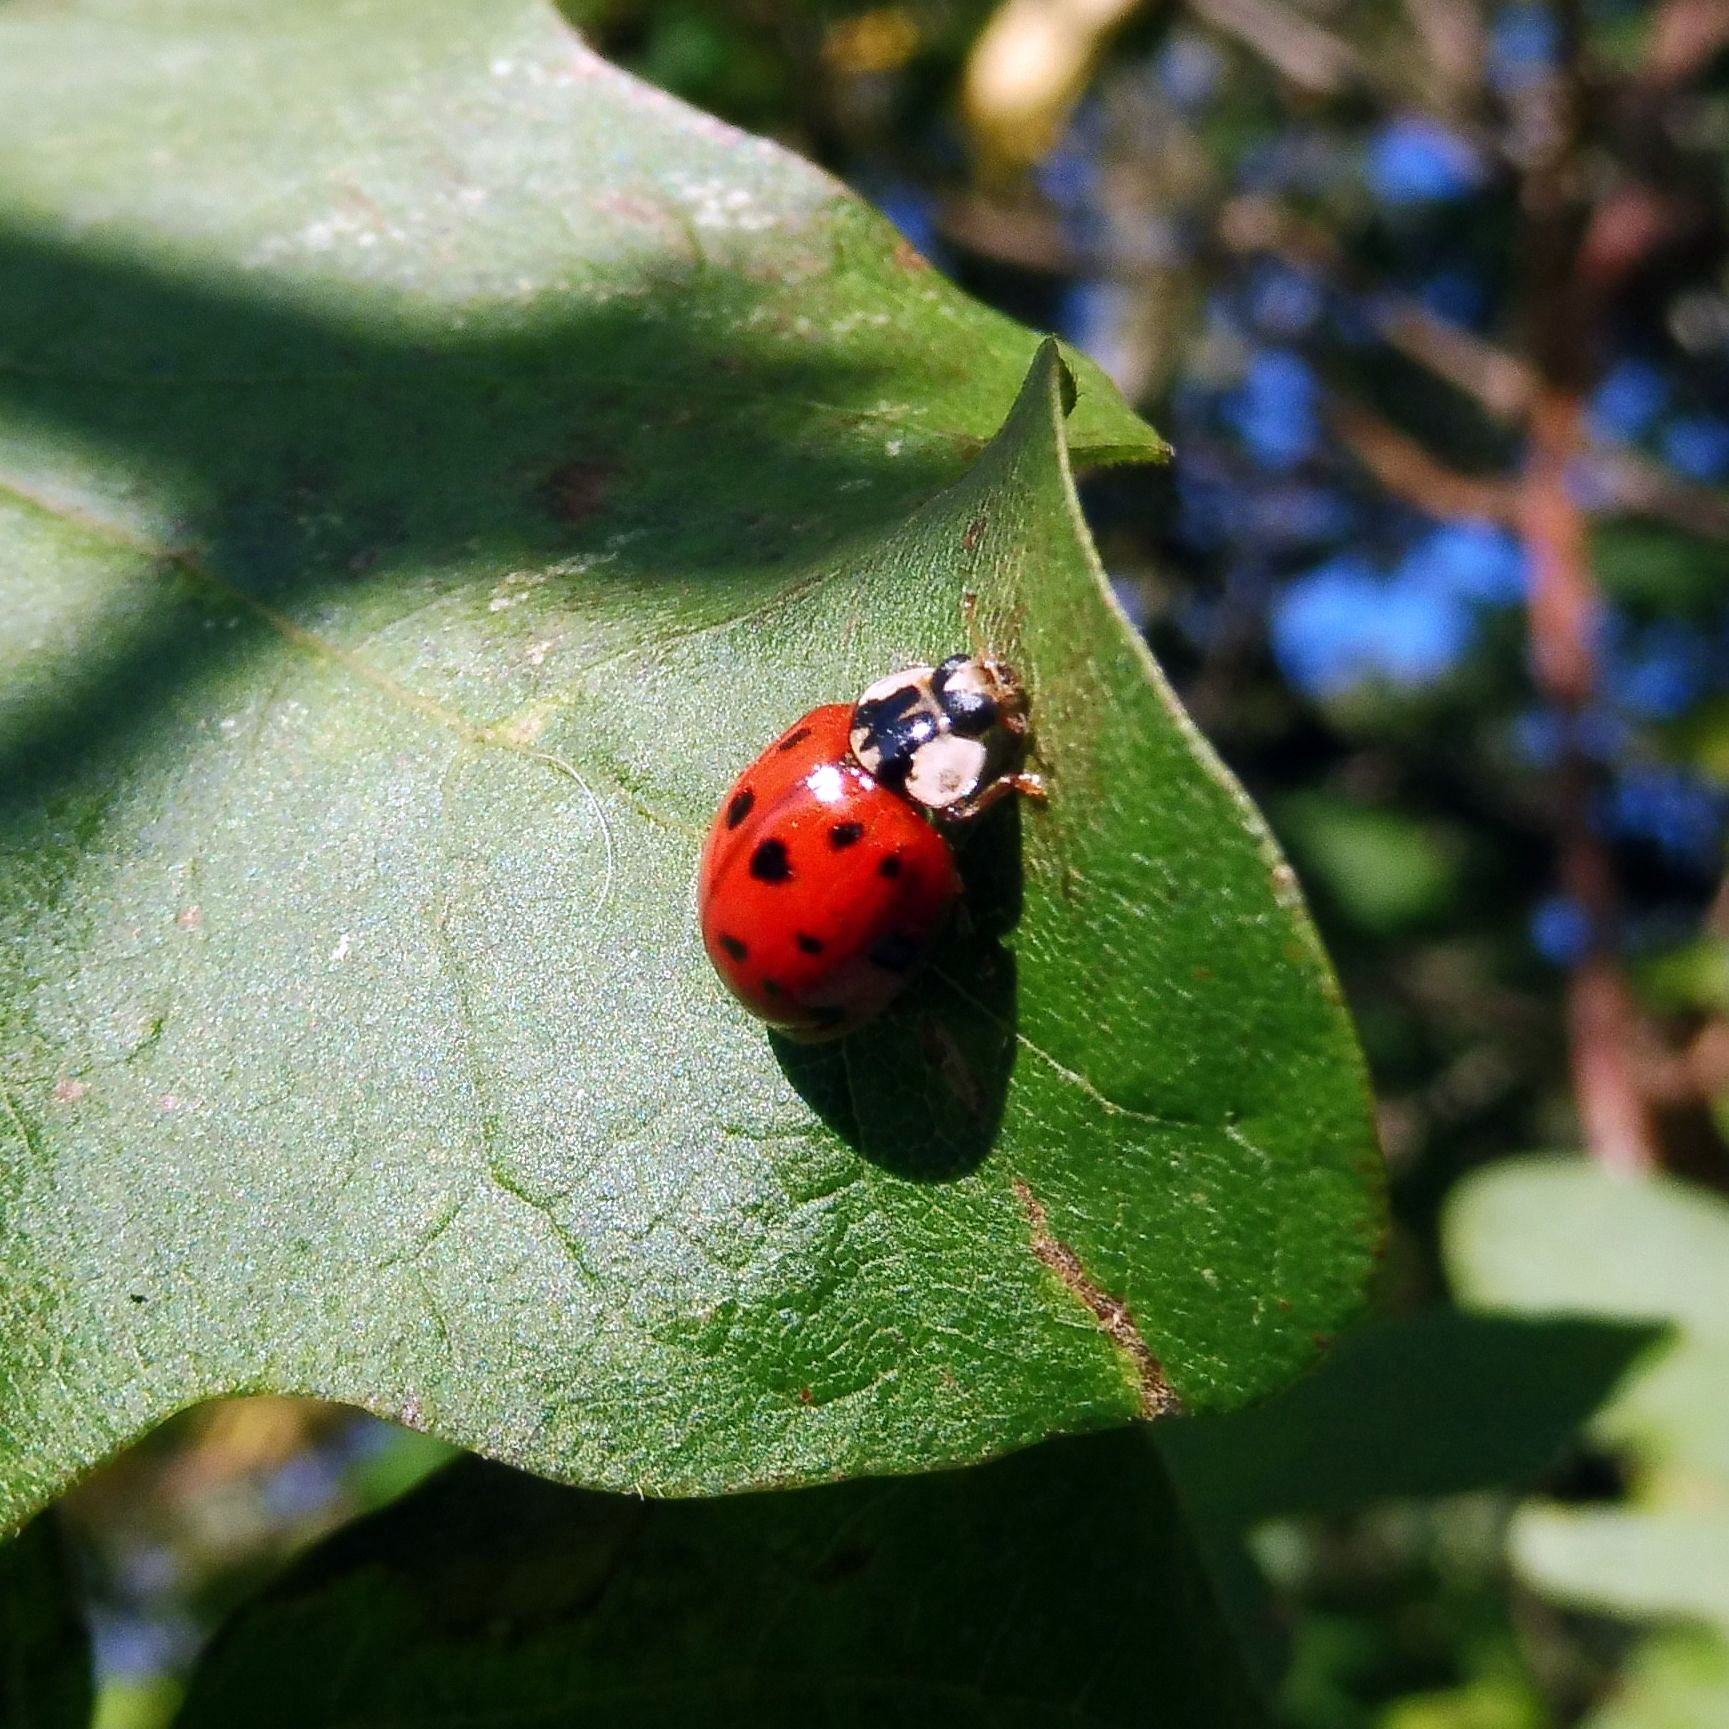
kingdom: Animalia
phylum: Arthropoda
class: Insecta
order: Coleoptera
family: Coccinellidae
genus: Harmonia
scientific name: Harmonia axyridis
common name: Harlequin ladybird
